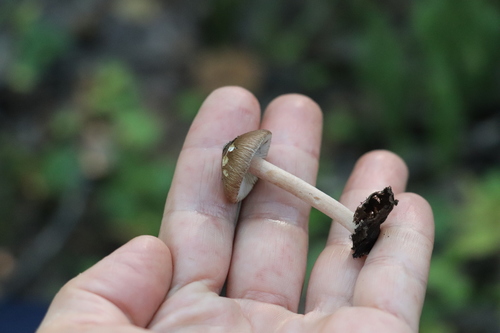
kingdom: Fungi
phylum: Basidiomycota
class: Agaricomycetes
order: Agaricales
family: Inocybaceae
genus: Inocybe
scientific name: Inocybe
